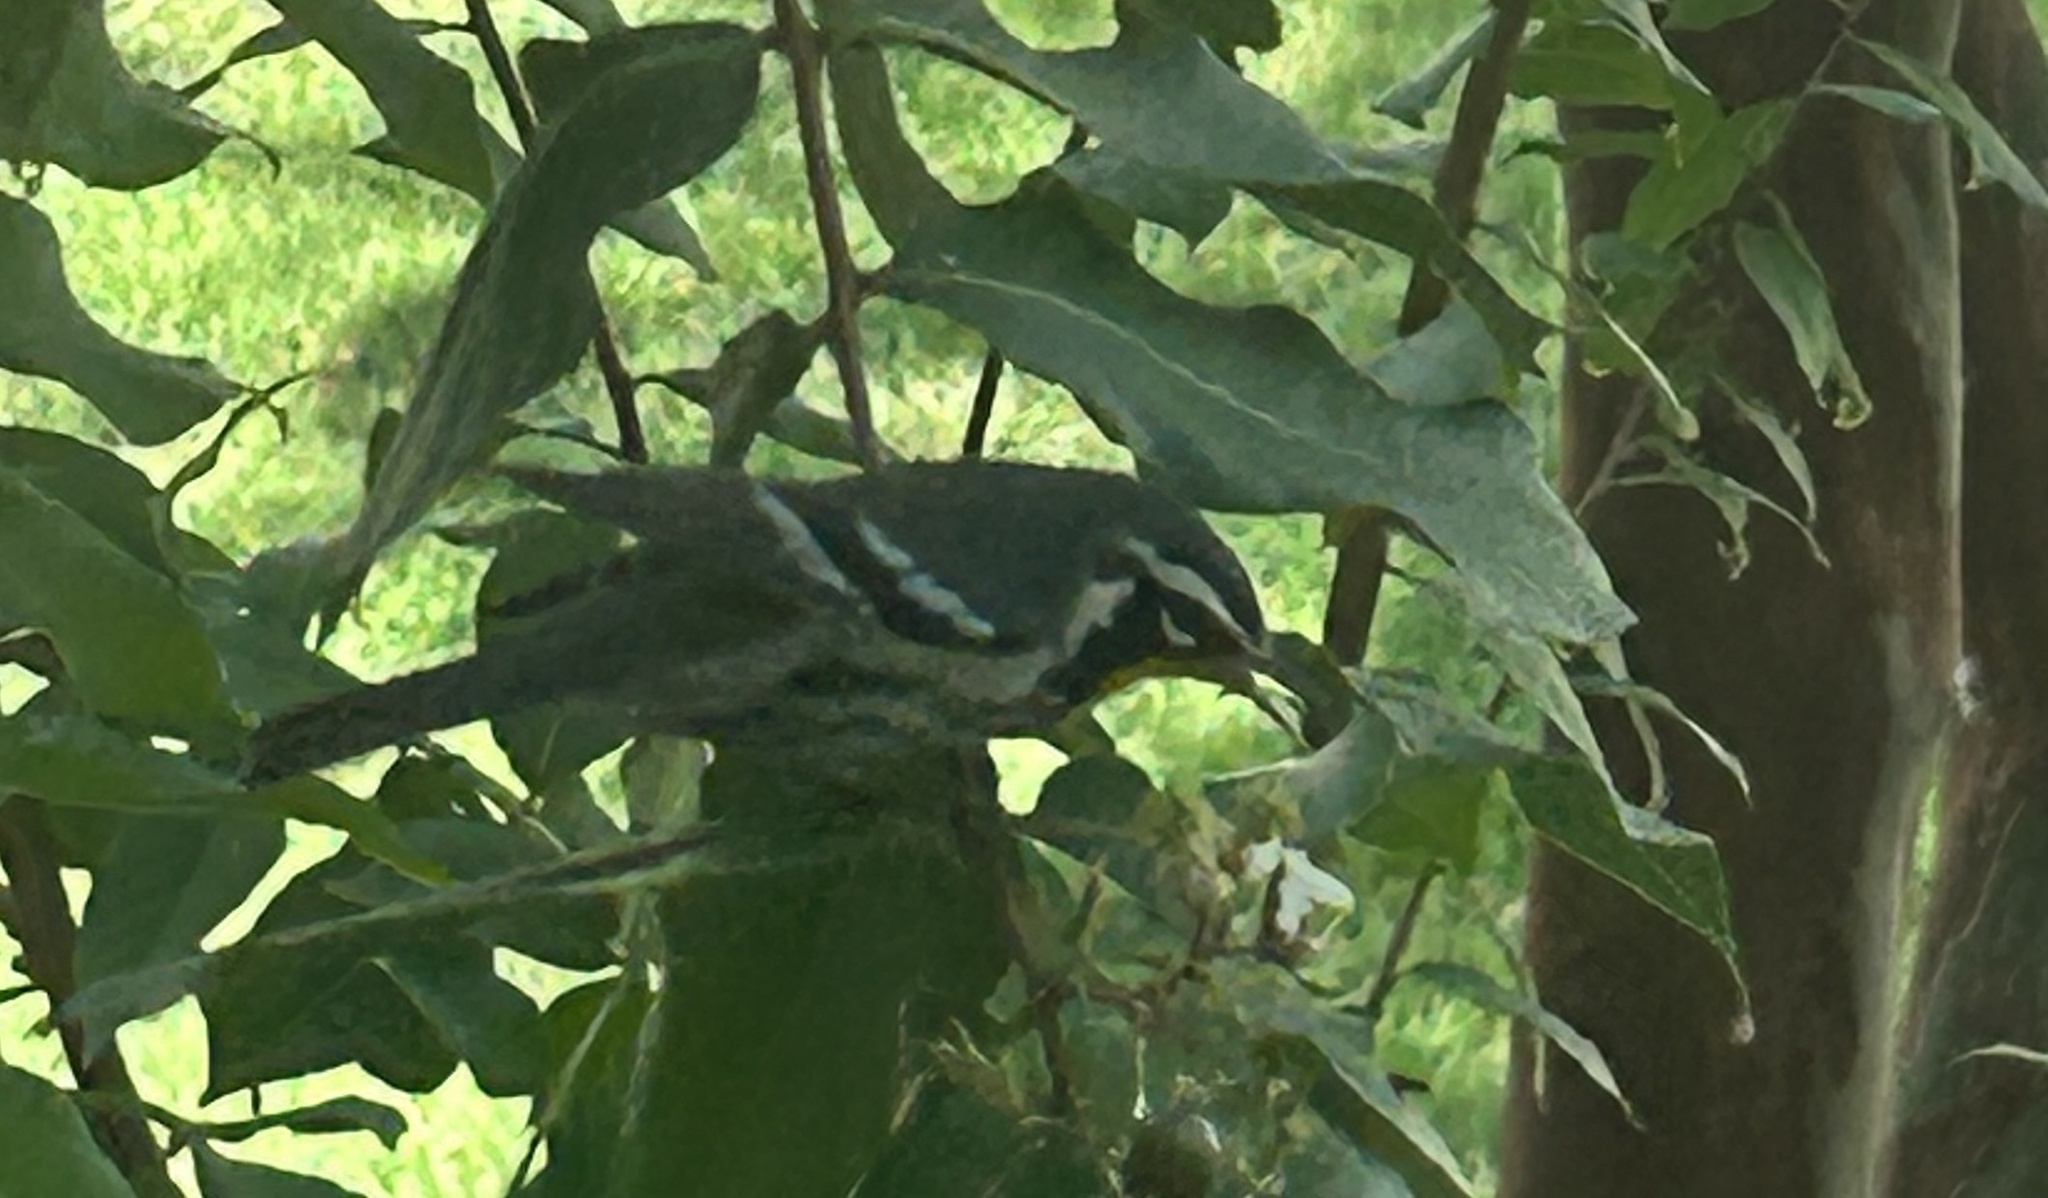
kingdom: Animalia
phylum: Chordata
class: Aves
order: Passeriformes
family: Parulidae
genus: Setophaga
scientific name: Setophaga dominica
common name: Yellow-throated warbler
